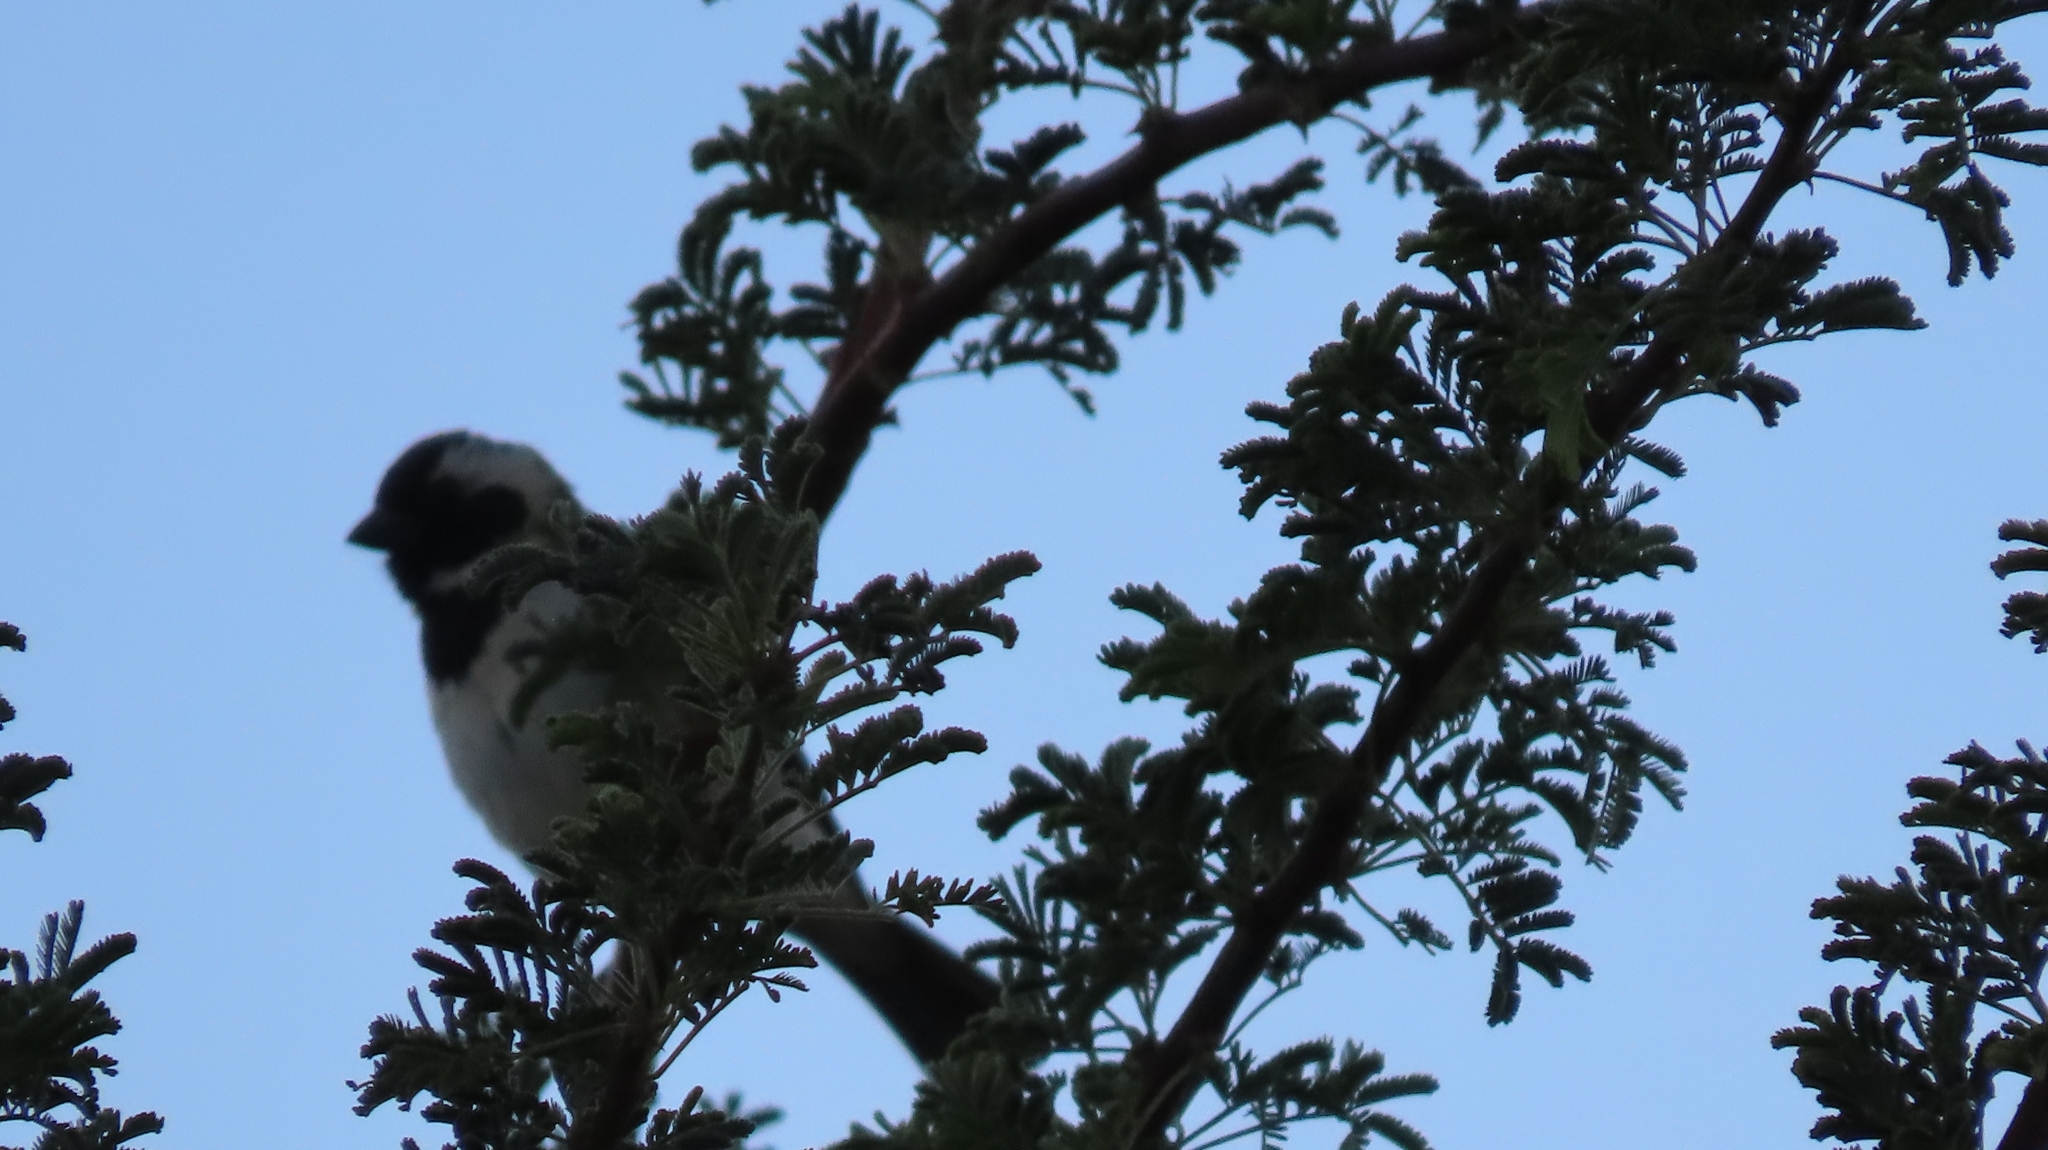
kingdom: Animalia
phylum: Chordata
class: Aves
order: Passeriformes
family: Passeridae
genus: Passer
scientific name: Passer melanurus
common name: Cape sparrow
